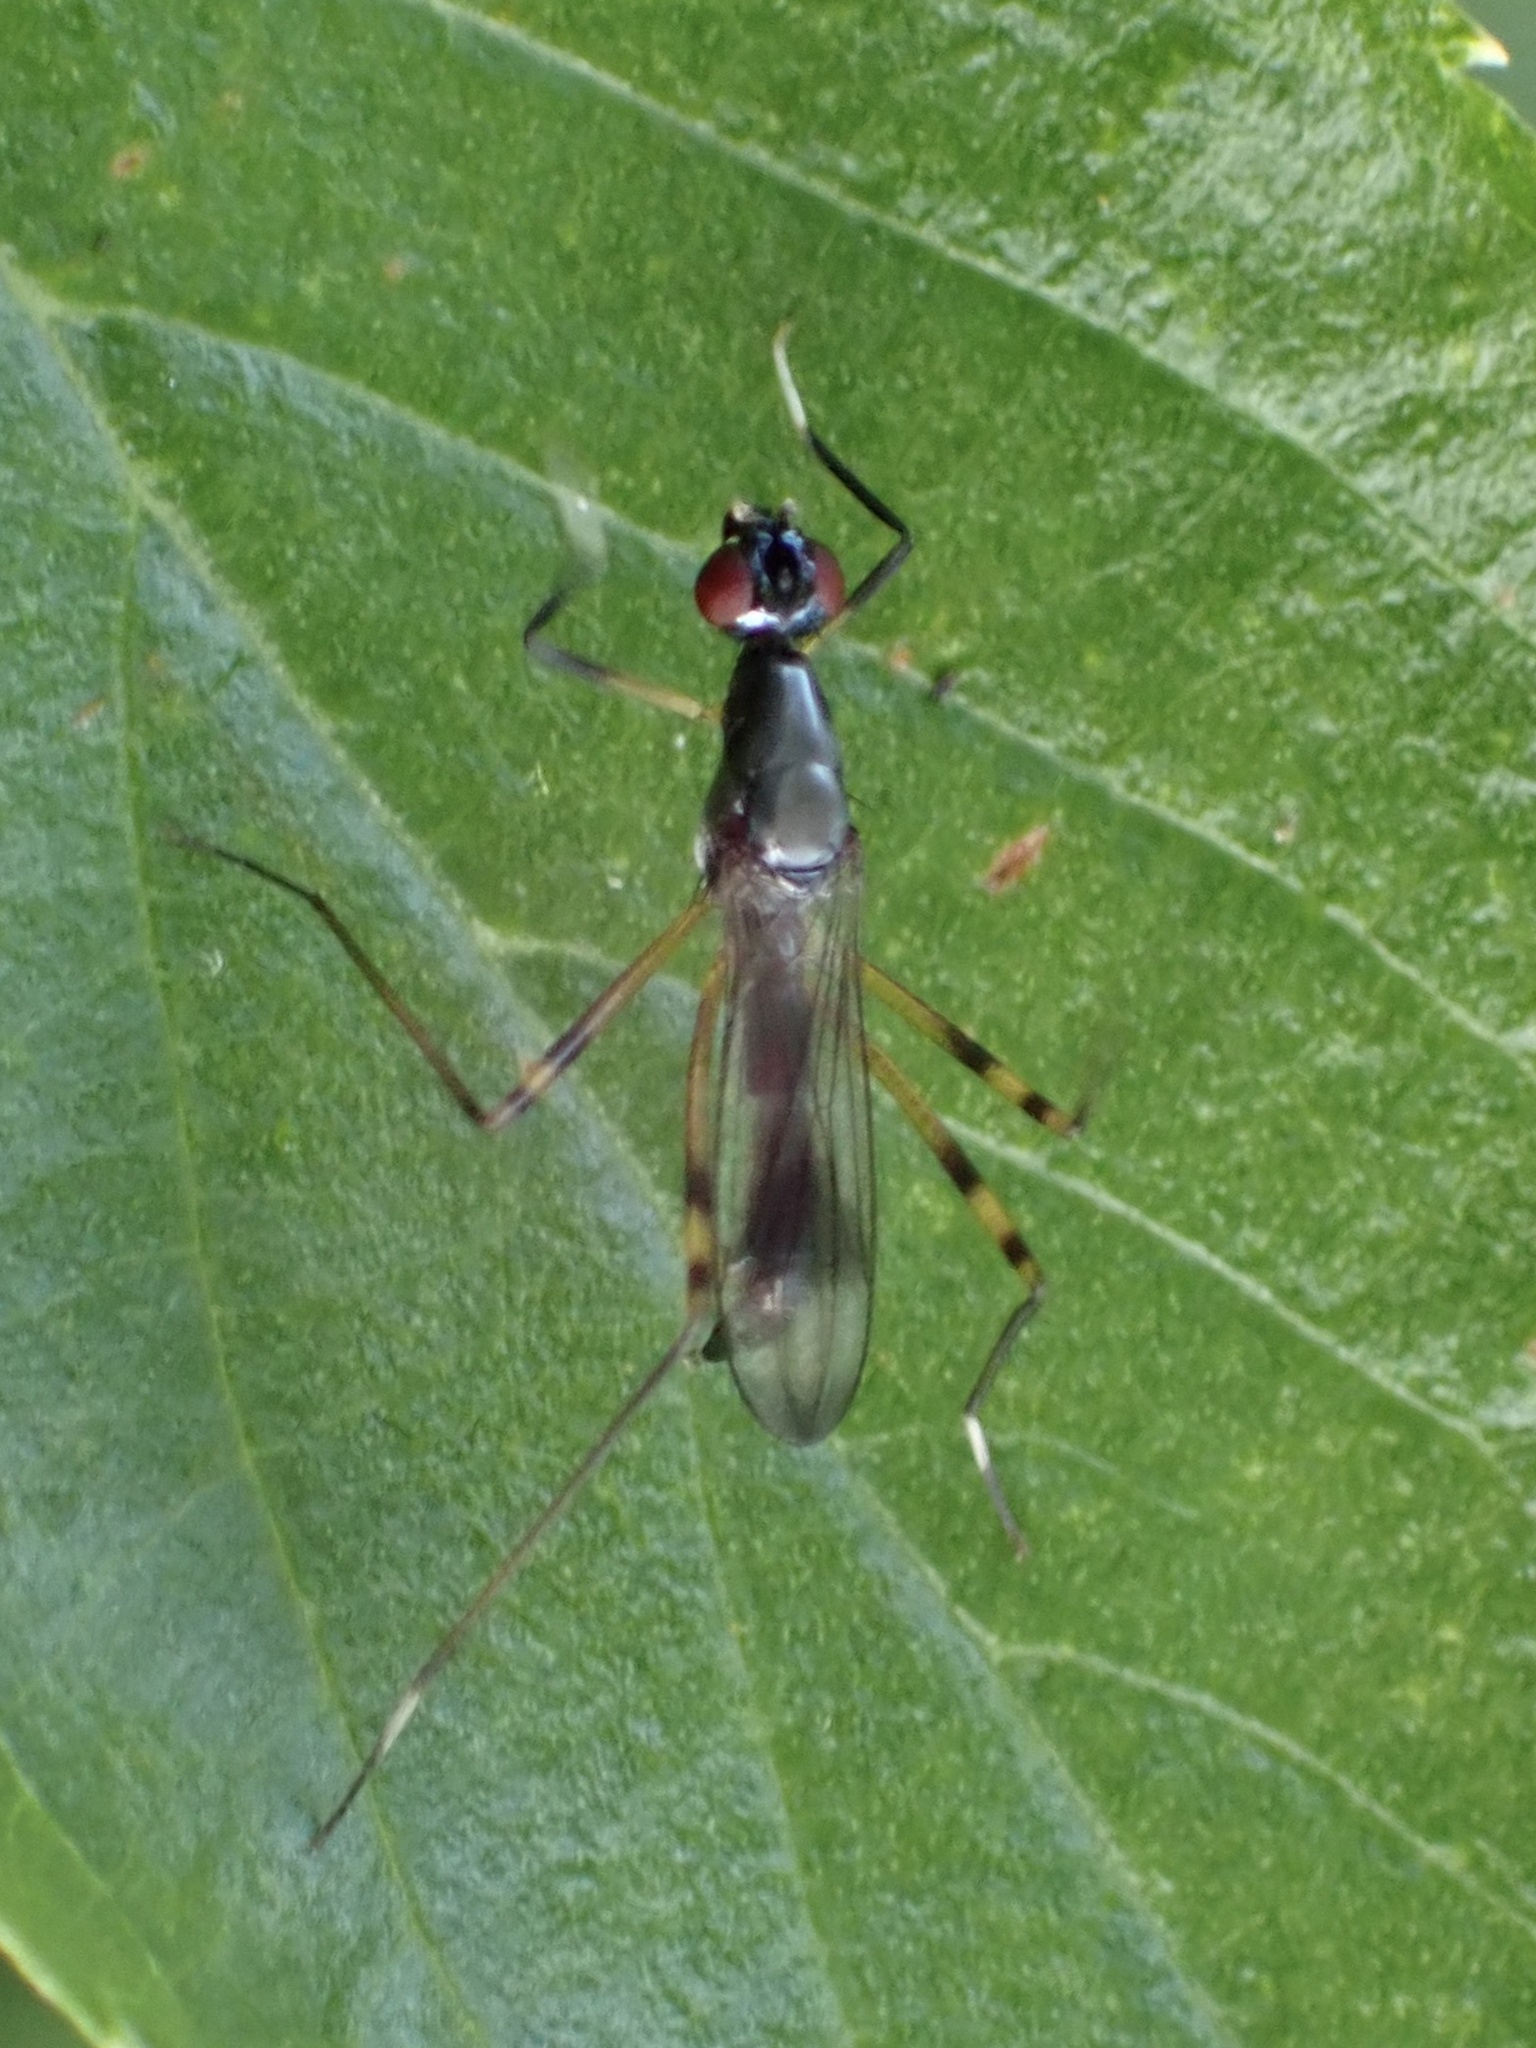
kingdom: Animalia
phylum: Arthropoda
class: Insecta
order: Diptera
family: Micropezidae
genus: Rainieria
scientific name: Rainieria antennaepes
